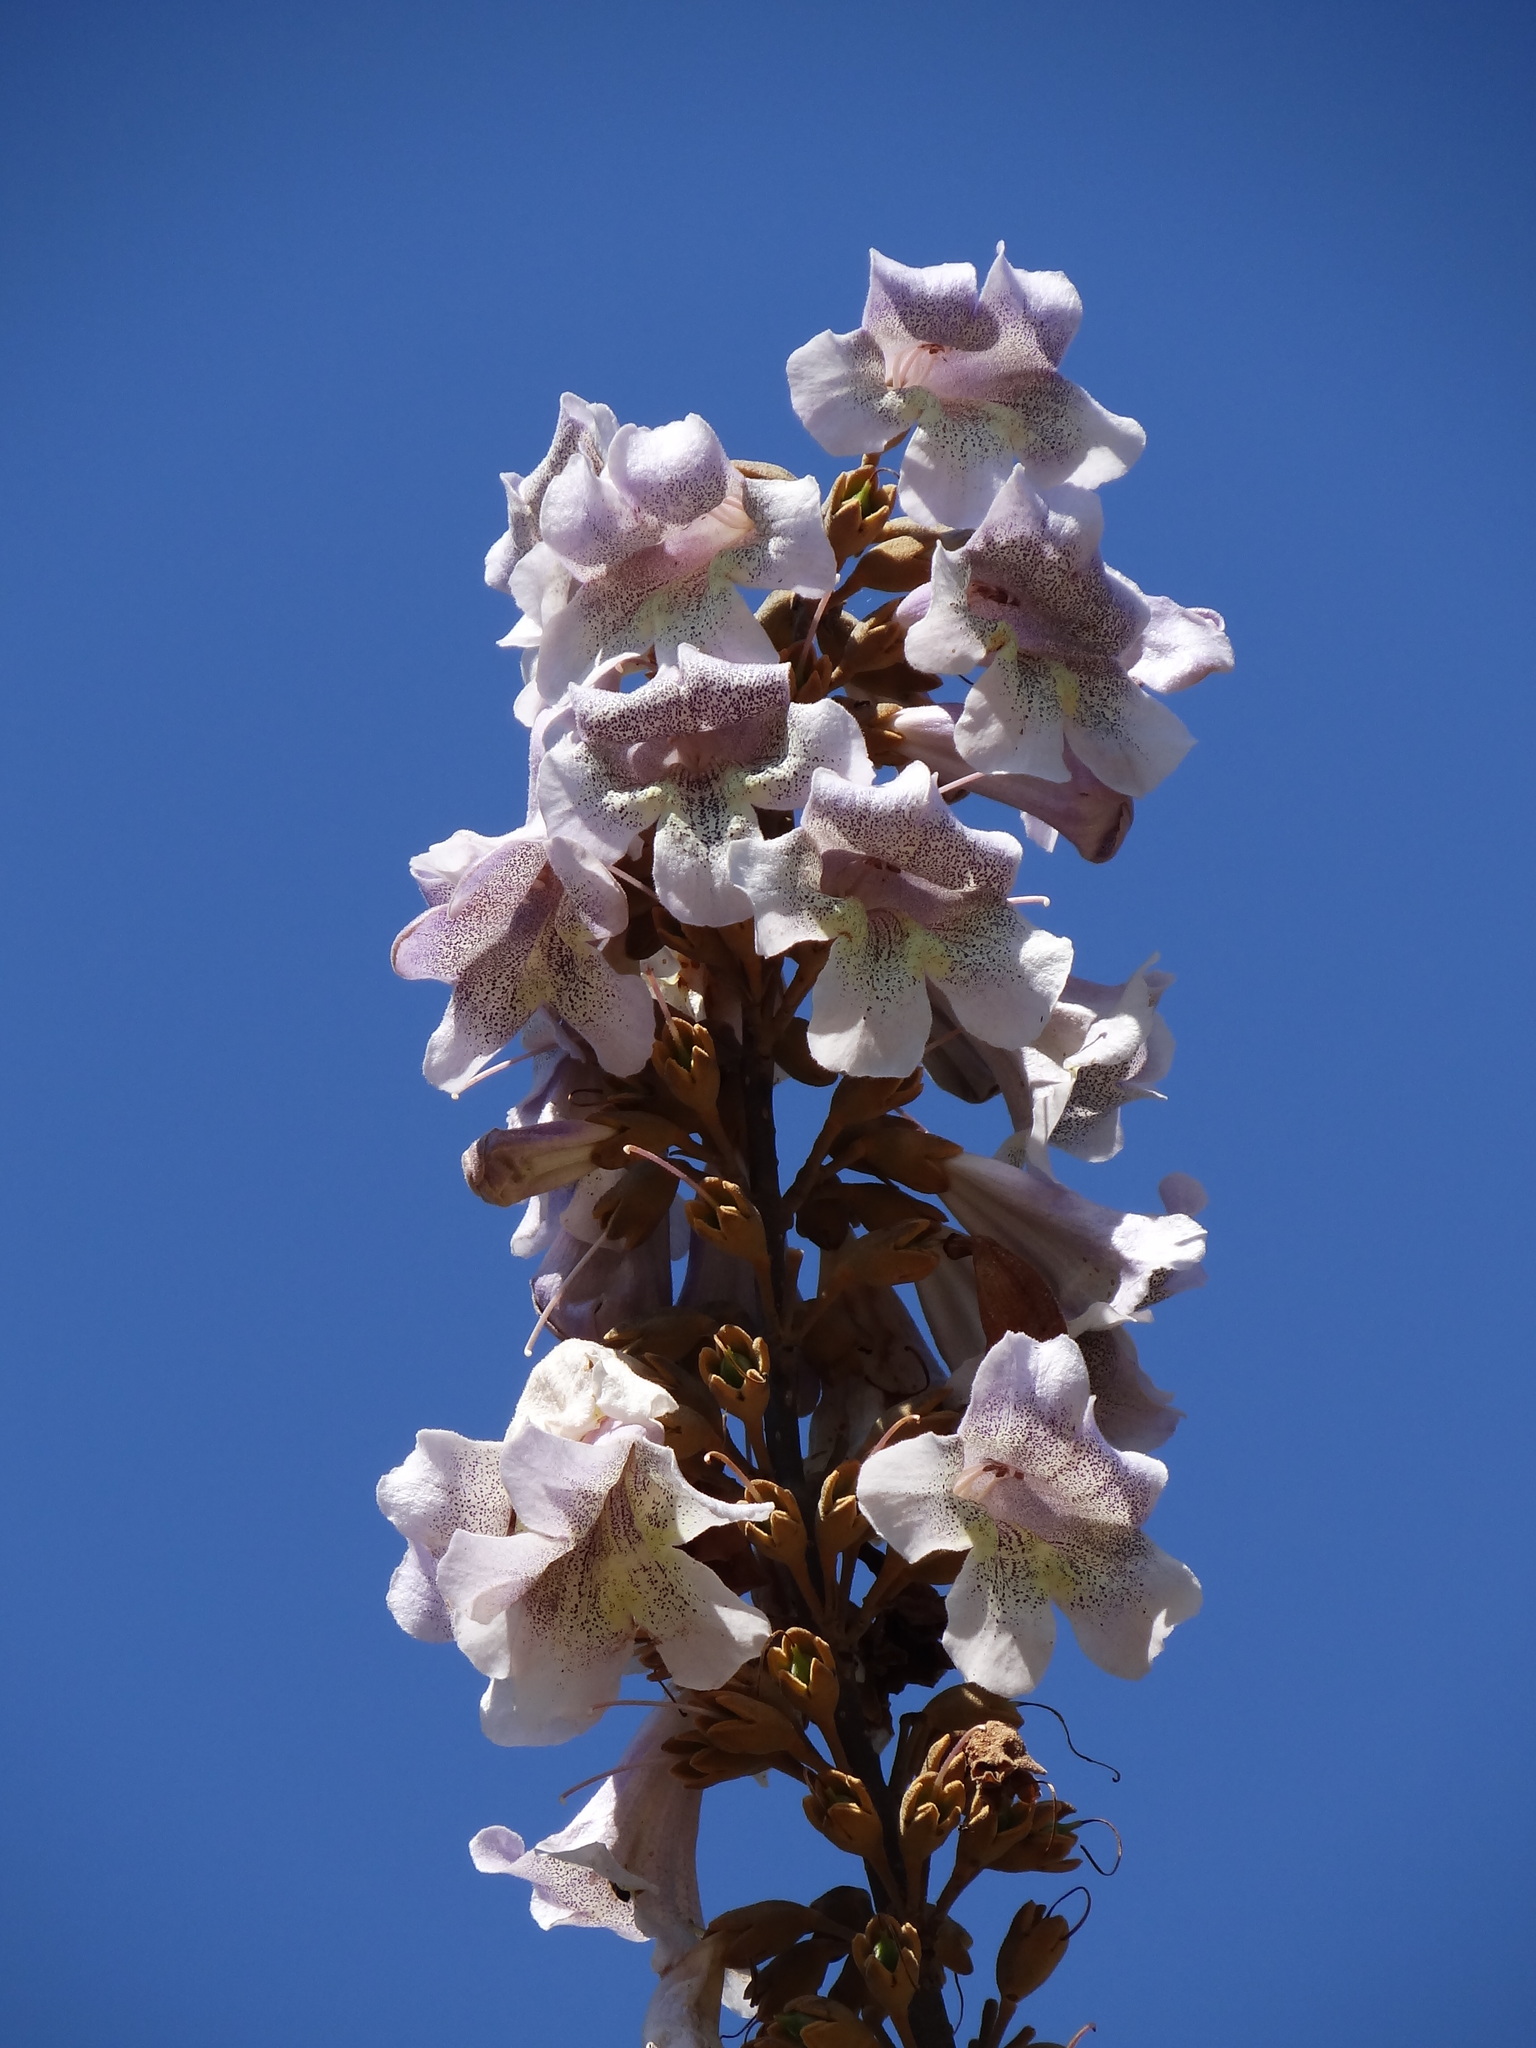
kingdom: Plantae
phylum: Tracheophyta
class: Magnoliopsida
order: Lamiales
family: Paulowniaceae
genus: Paulownia
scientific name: Paulownia taiwaniana
